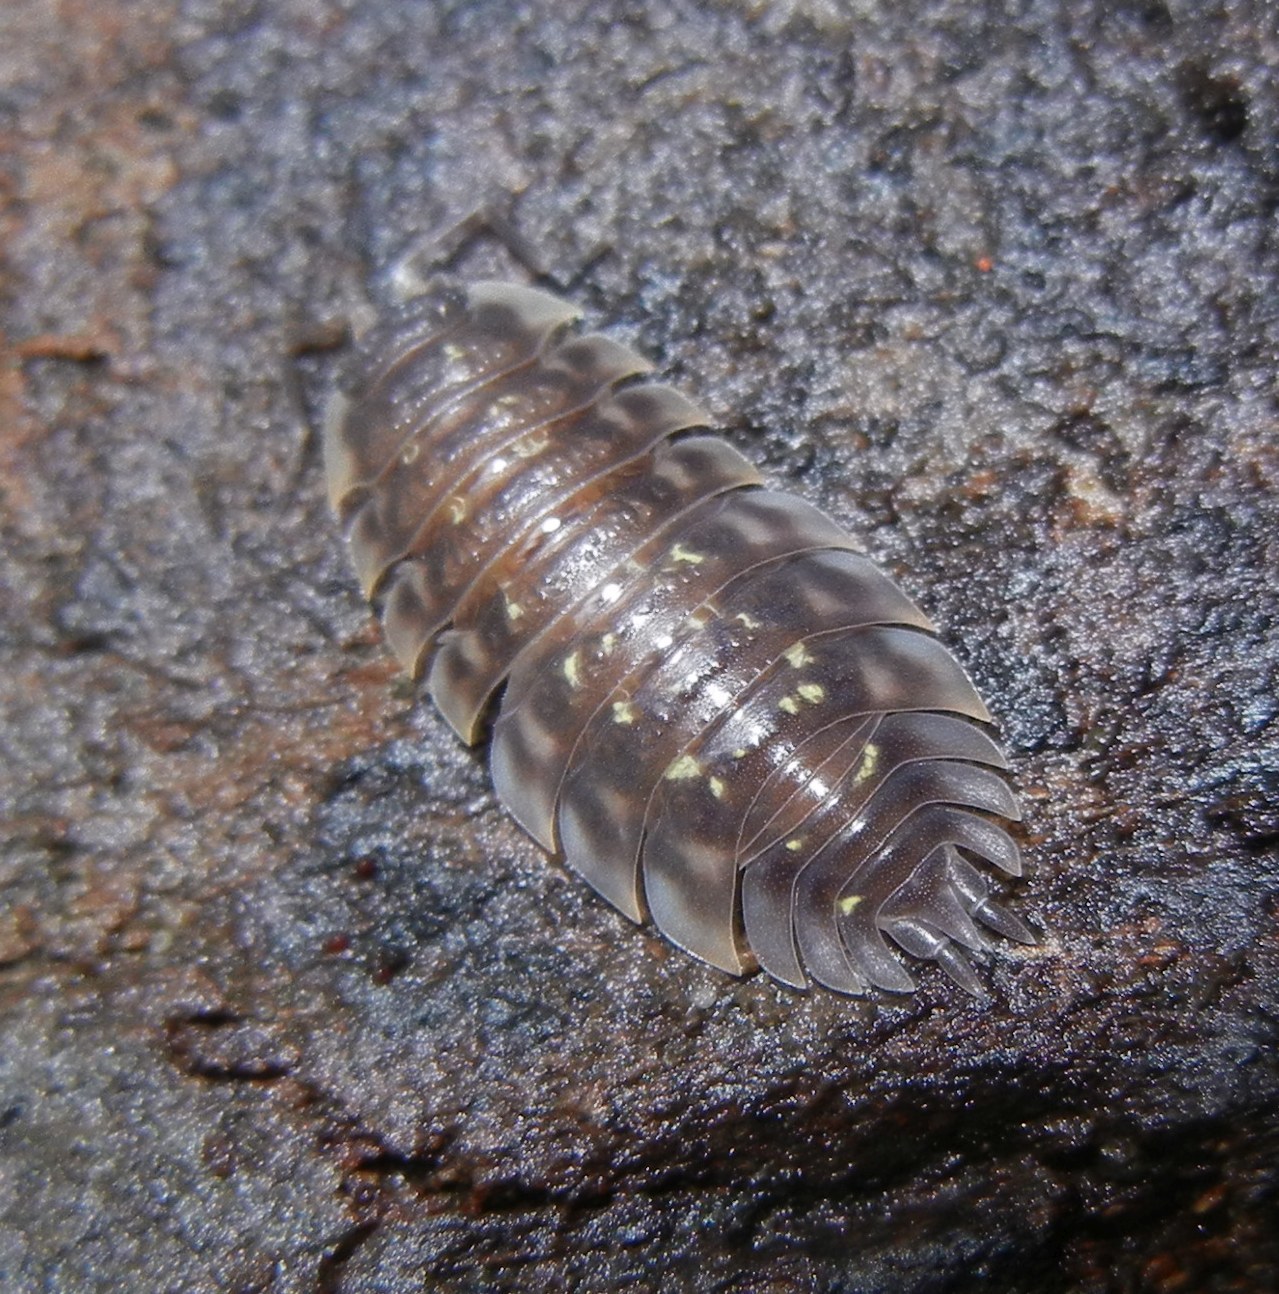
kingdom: Animalia
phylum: Arthropoda
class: Malacostraca
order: Isopoda
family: Oniscidae
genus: Oniscus
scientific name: Oniscus asellus
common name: Common shiny woodlouse
